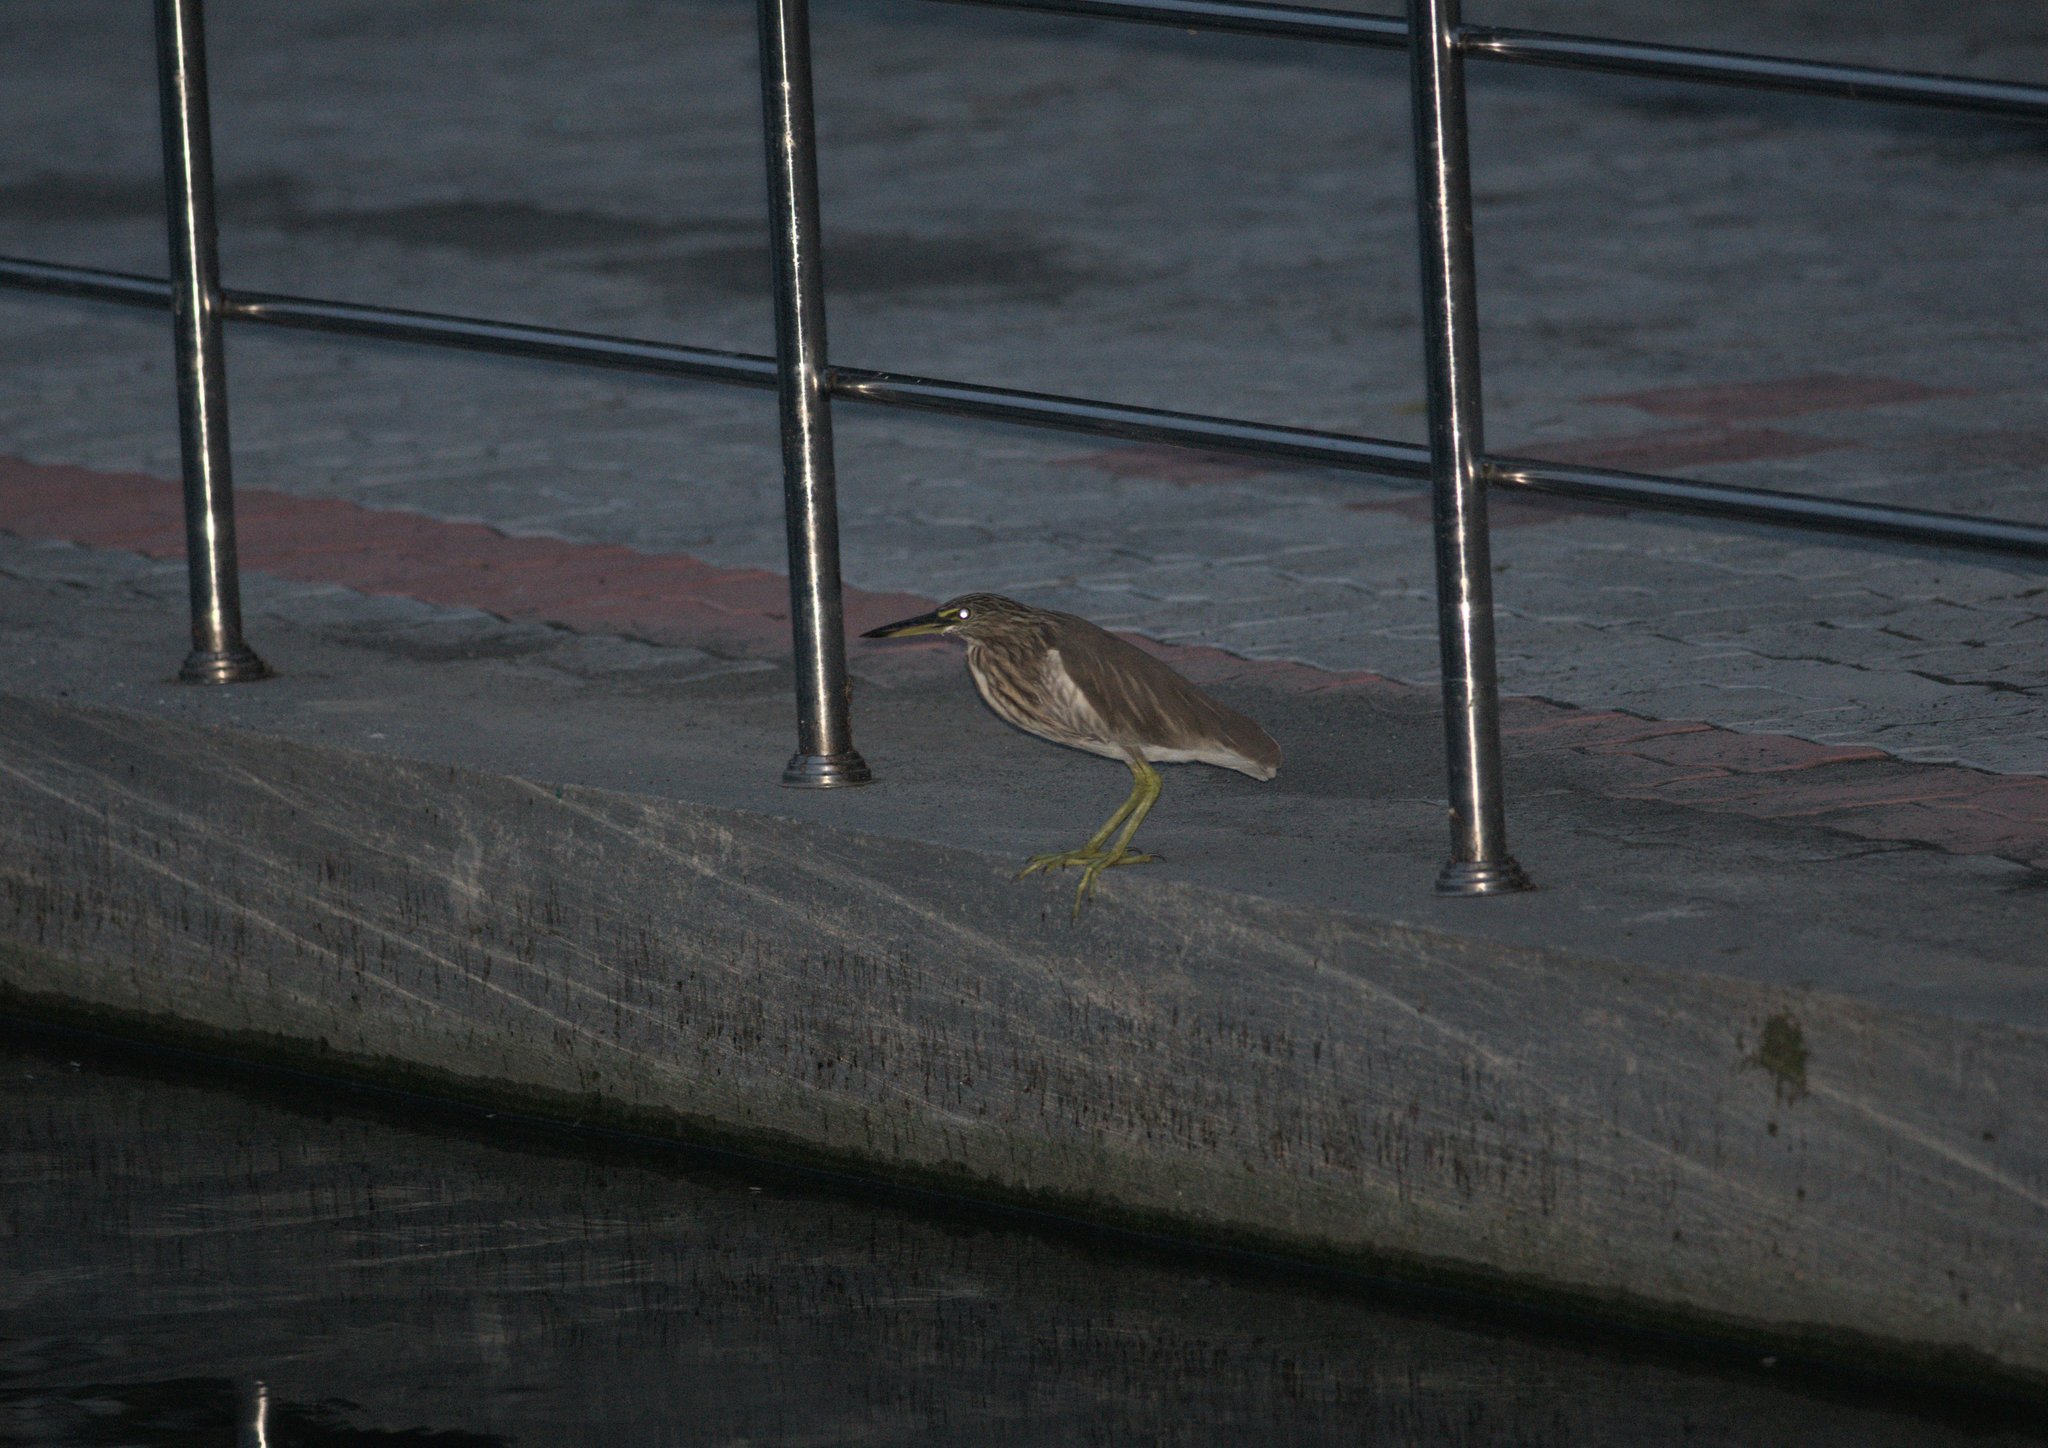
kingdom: Animalia
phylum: Chordata
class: Aves
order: Pelecaniformes
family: Ardeidae
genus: Ardeola
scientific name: Ardeola grayii
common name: Indian pond heron
